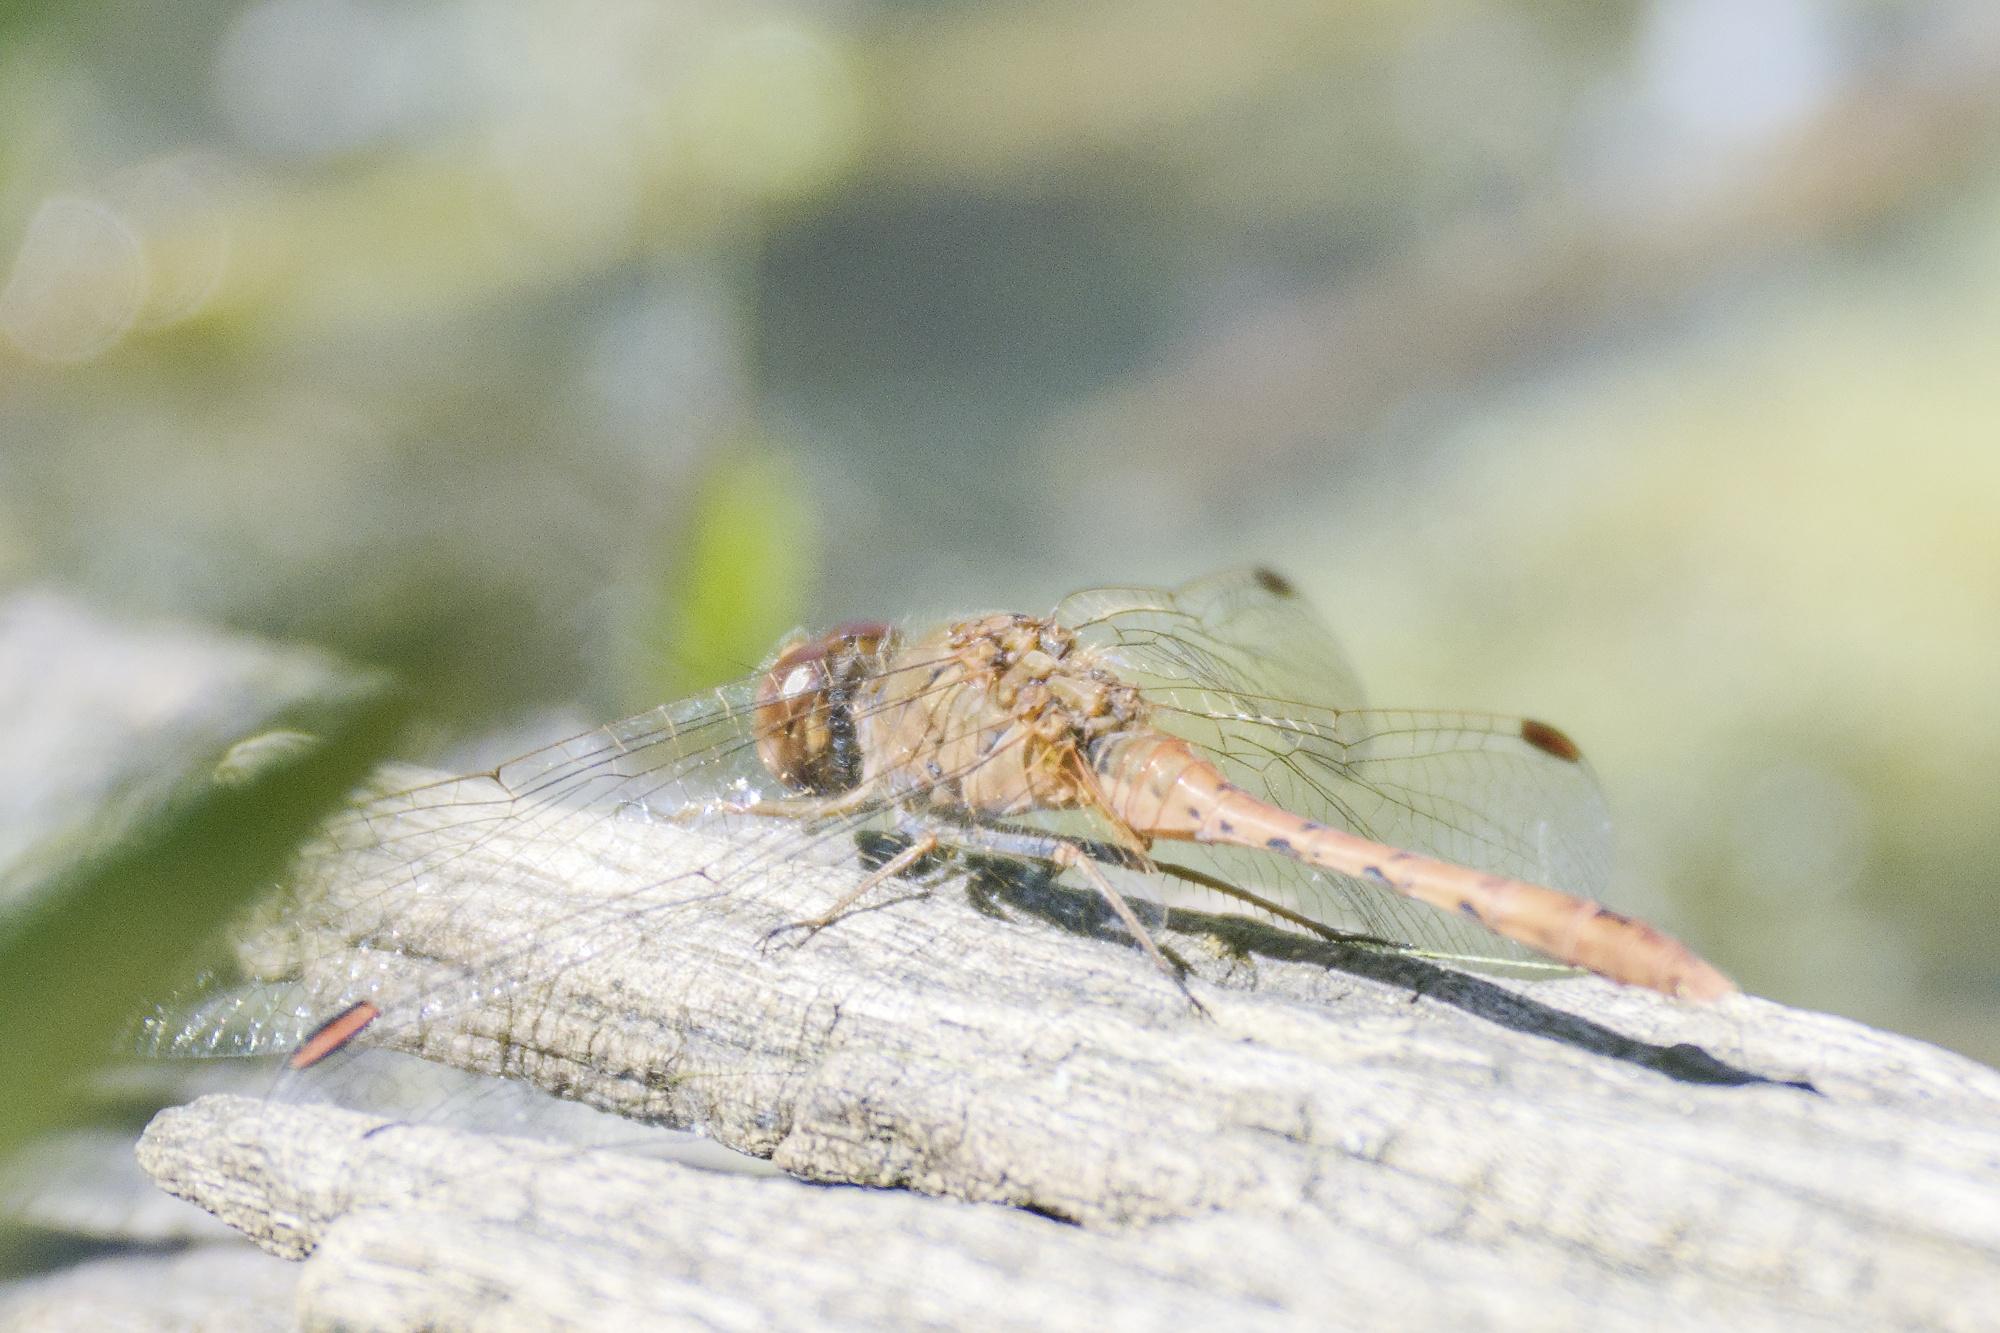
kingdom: Animalia
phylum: Arthropoda
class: Insecta
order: Odonata
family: Libellulidae
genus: Diplacodes
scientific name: Diplacodes bipunctata
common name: Red percher dragonfly
